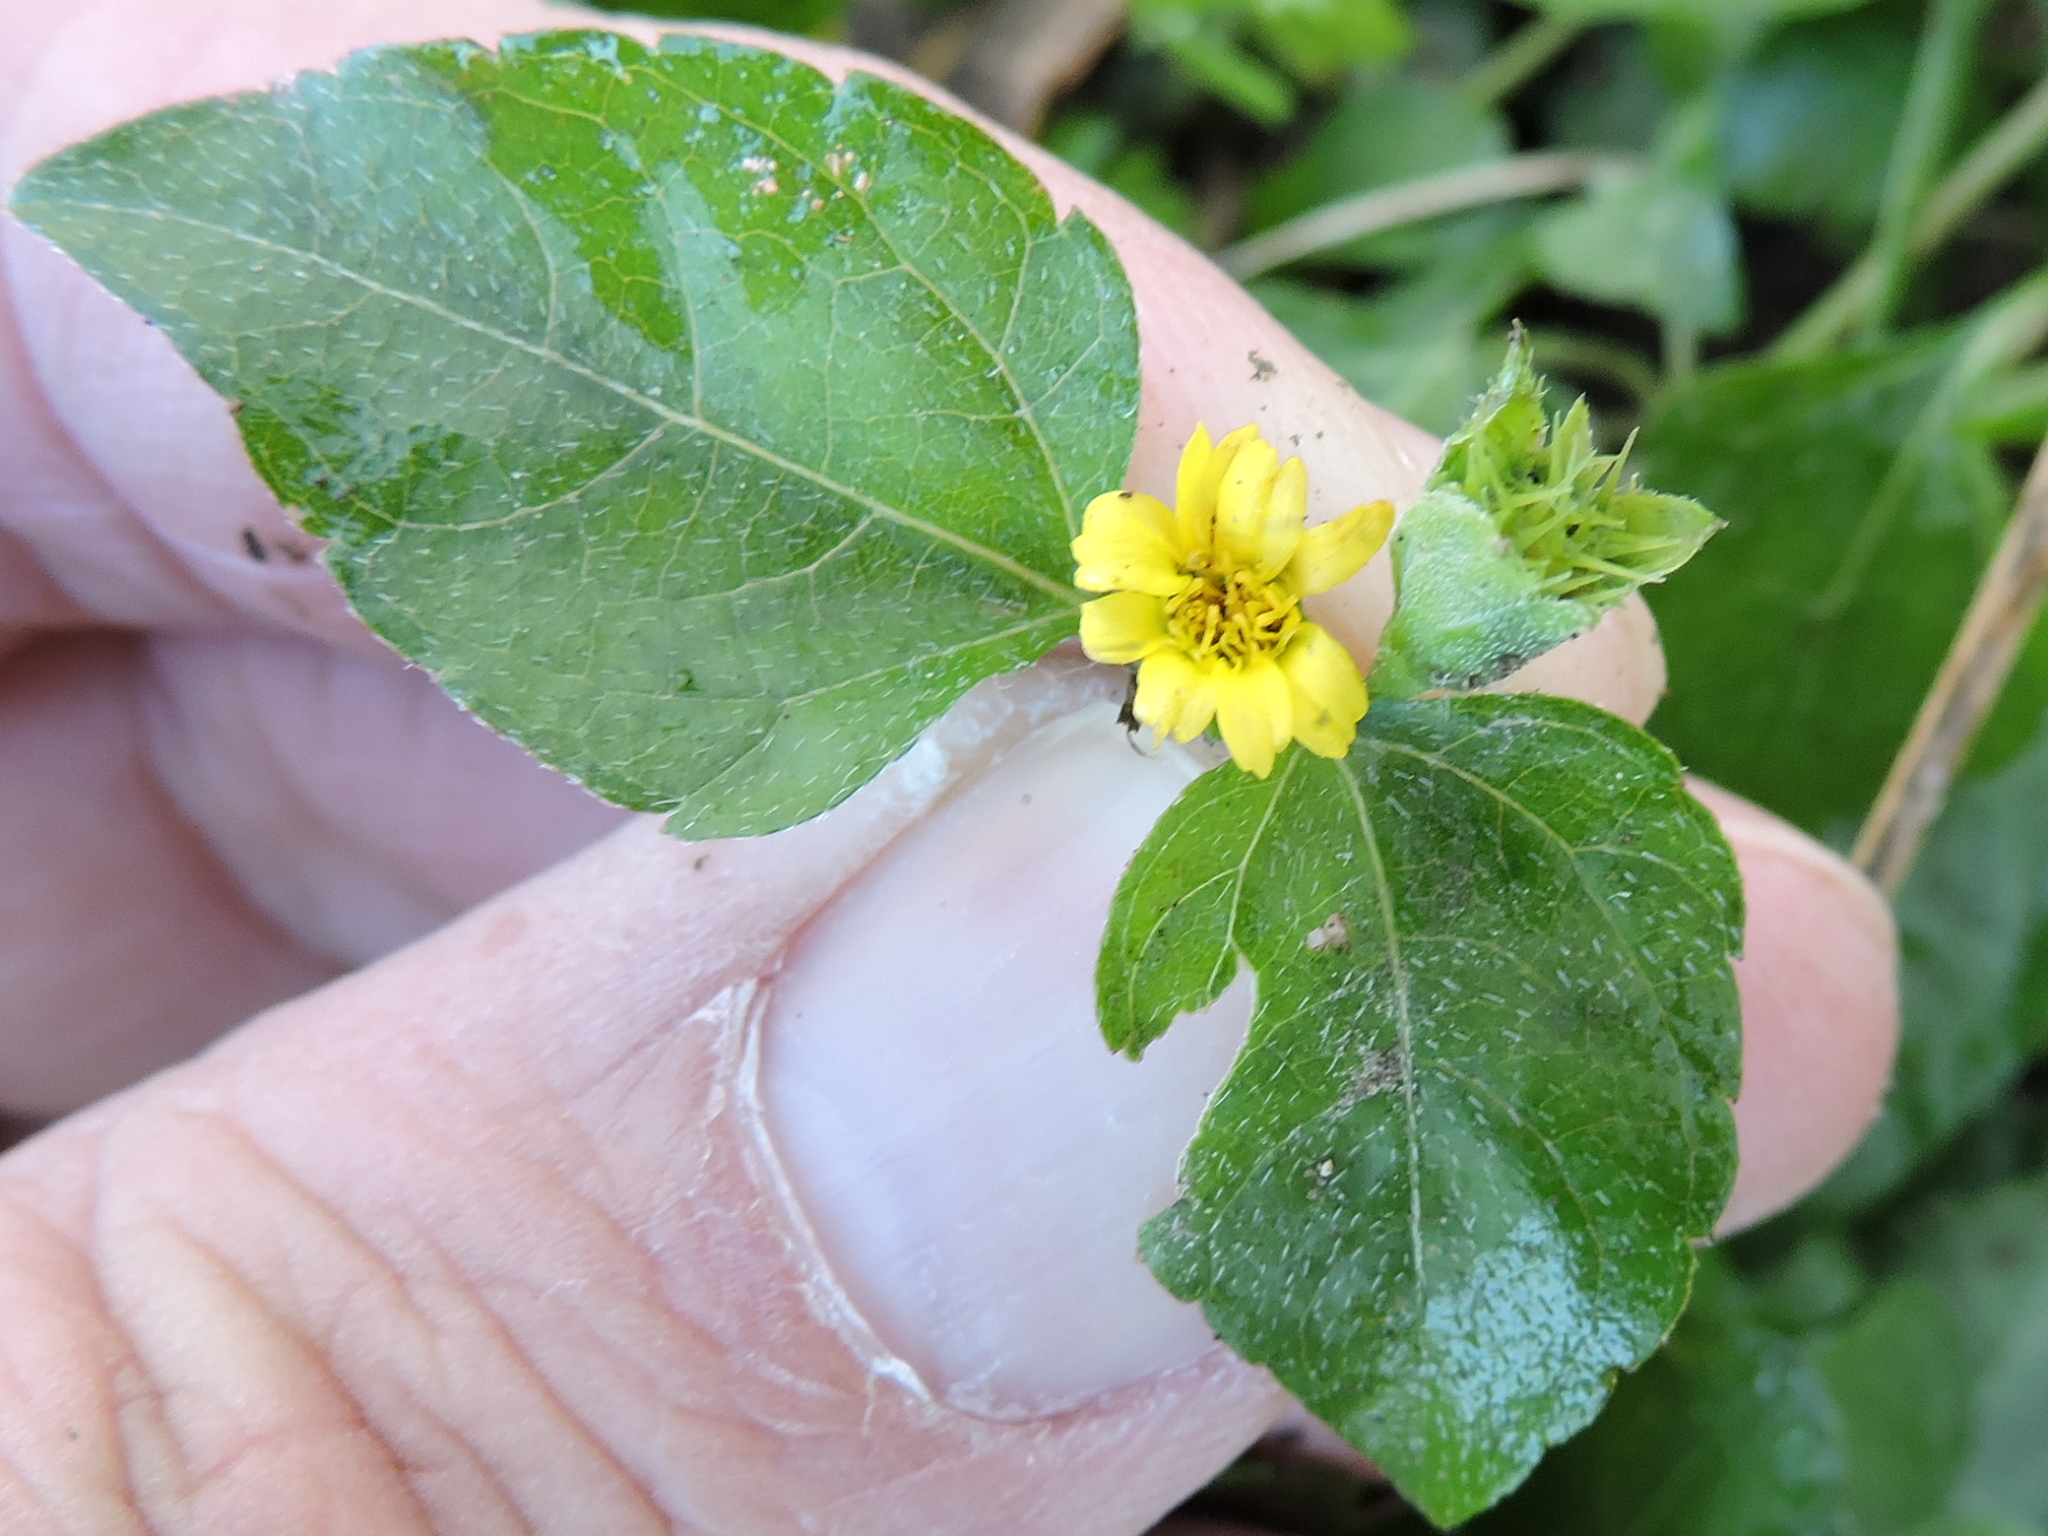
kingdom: Plantae
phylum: Tracheophyta
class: Magnoliopsida
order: Asterales
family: Asteraceae
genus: Calyptocarpus
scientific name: Calyptocarpus vialis
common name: Straggler daisy
